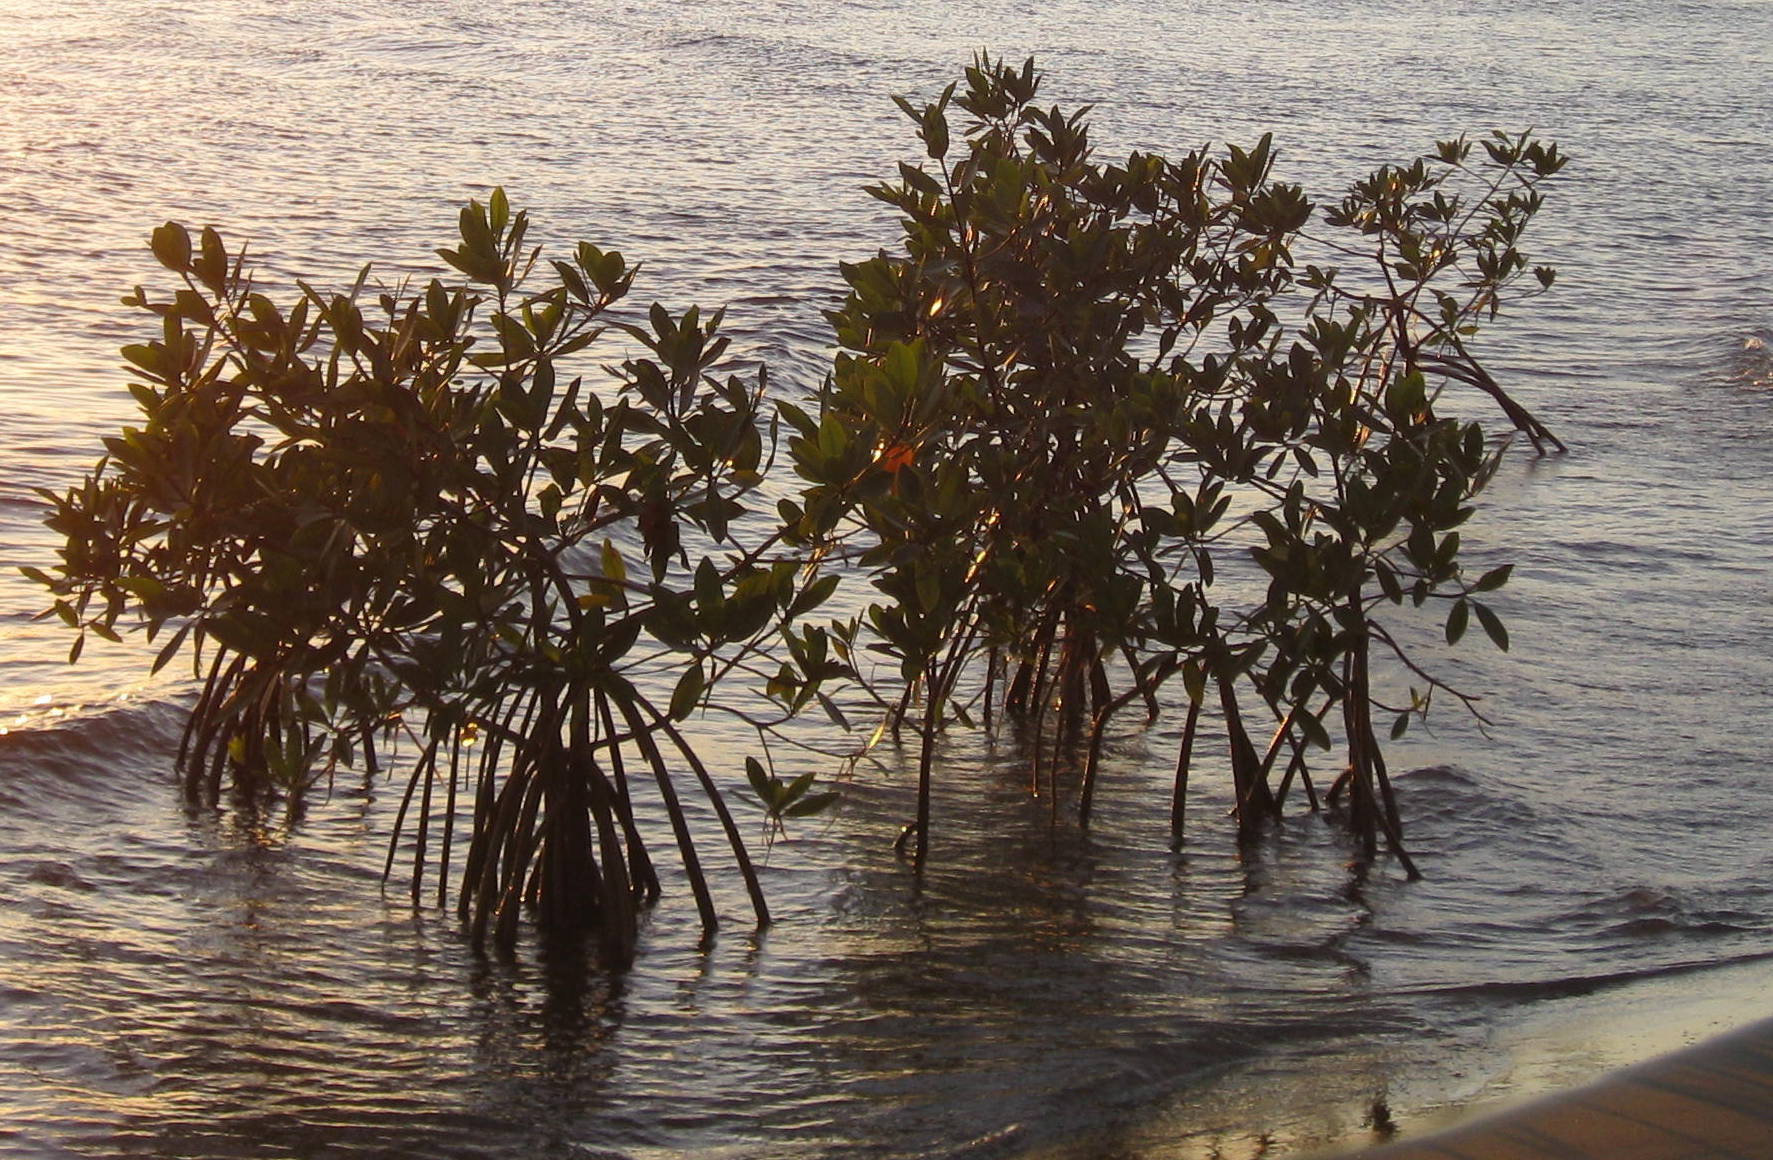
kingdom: Plantae
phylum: Tracheophyta
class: Magnoliopsida
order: Malpighiales
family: Rhizophoraceae
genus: Rhizophora
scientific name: Rhizophora mangle
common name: Red mangrove
